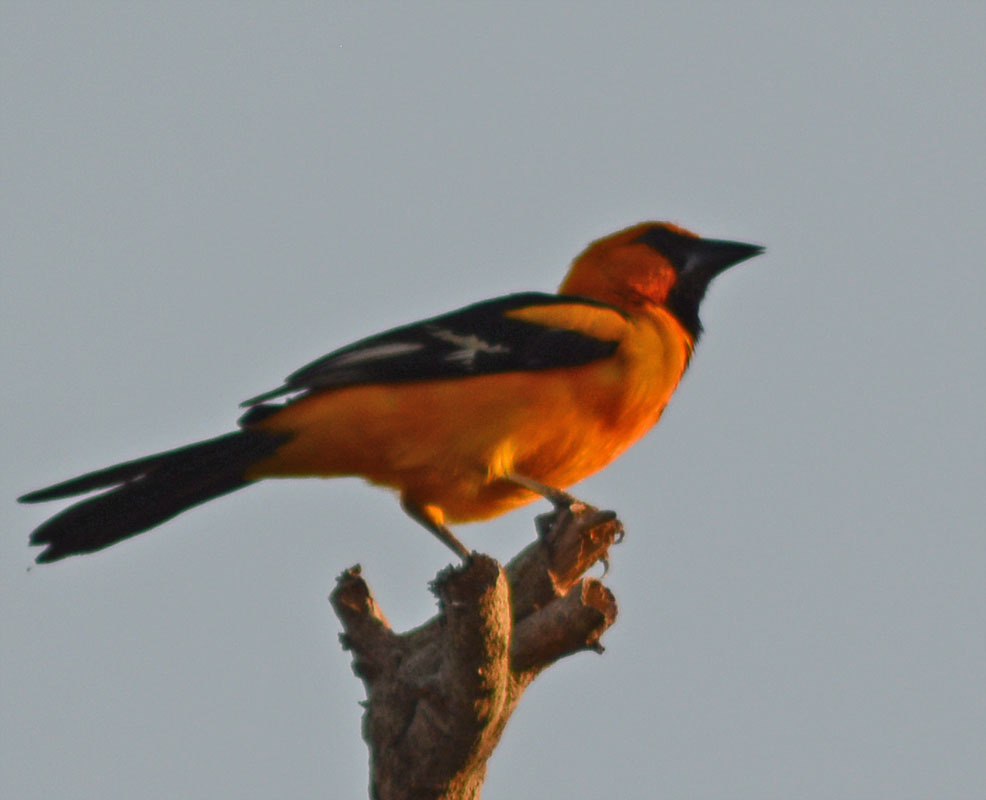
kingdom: Animalia
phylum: Chordata
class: Aves
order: Passeriformes
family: Icteridae
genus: Icterus
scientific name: Icterus gularis
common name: Altamira oriole
